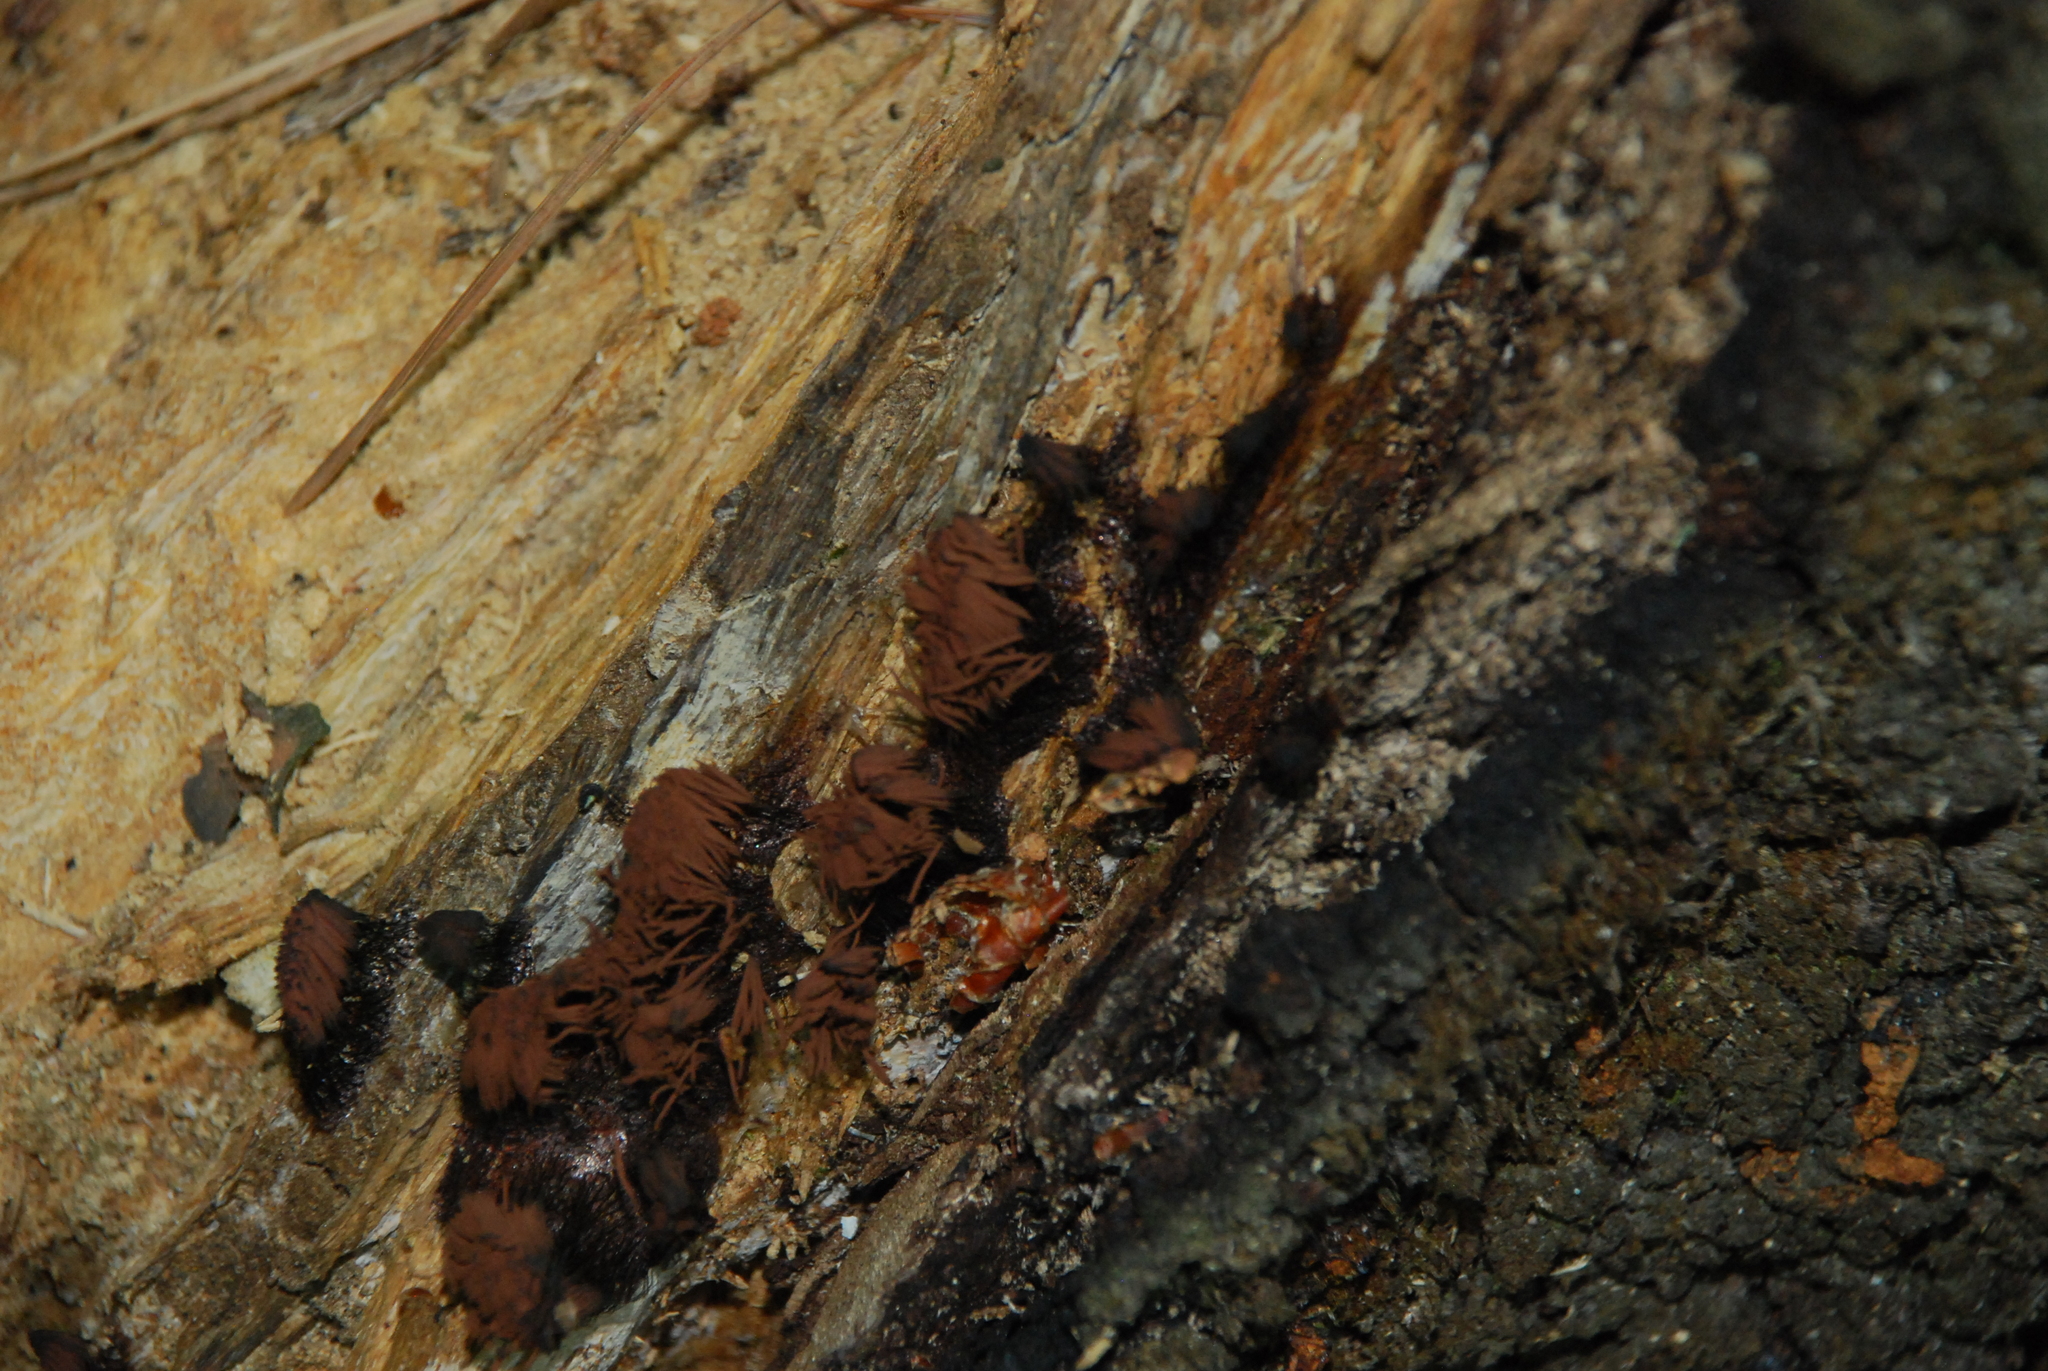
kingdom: Protozoa
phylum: Mycetozoa
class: Myxomycetes
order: Stemonitidales
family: Stemonitidaceae
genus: Stemonitis
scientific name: Stemonitis axifera
